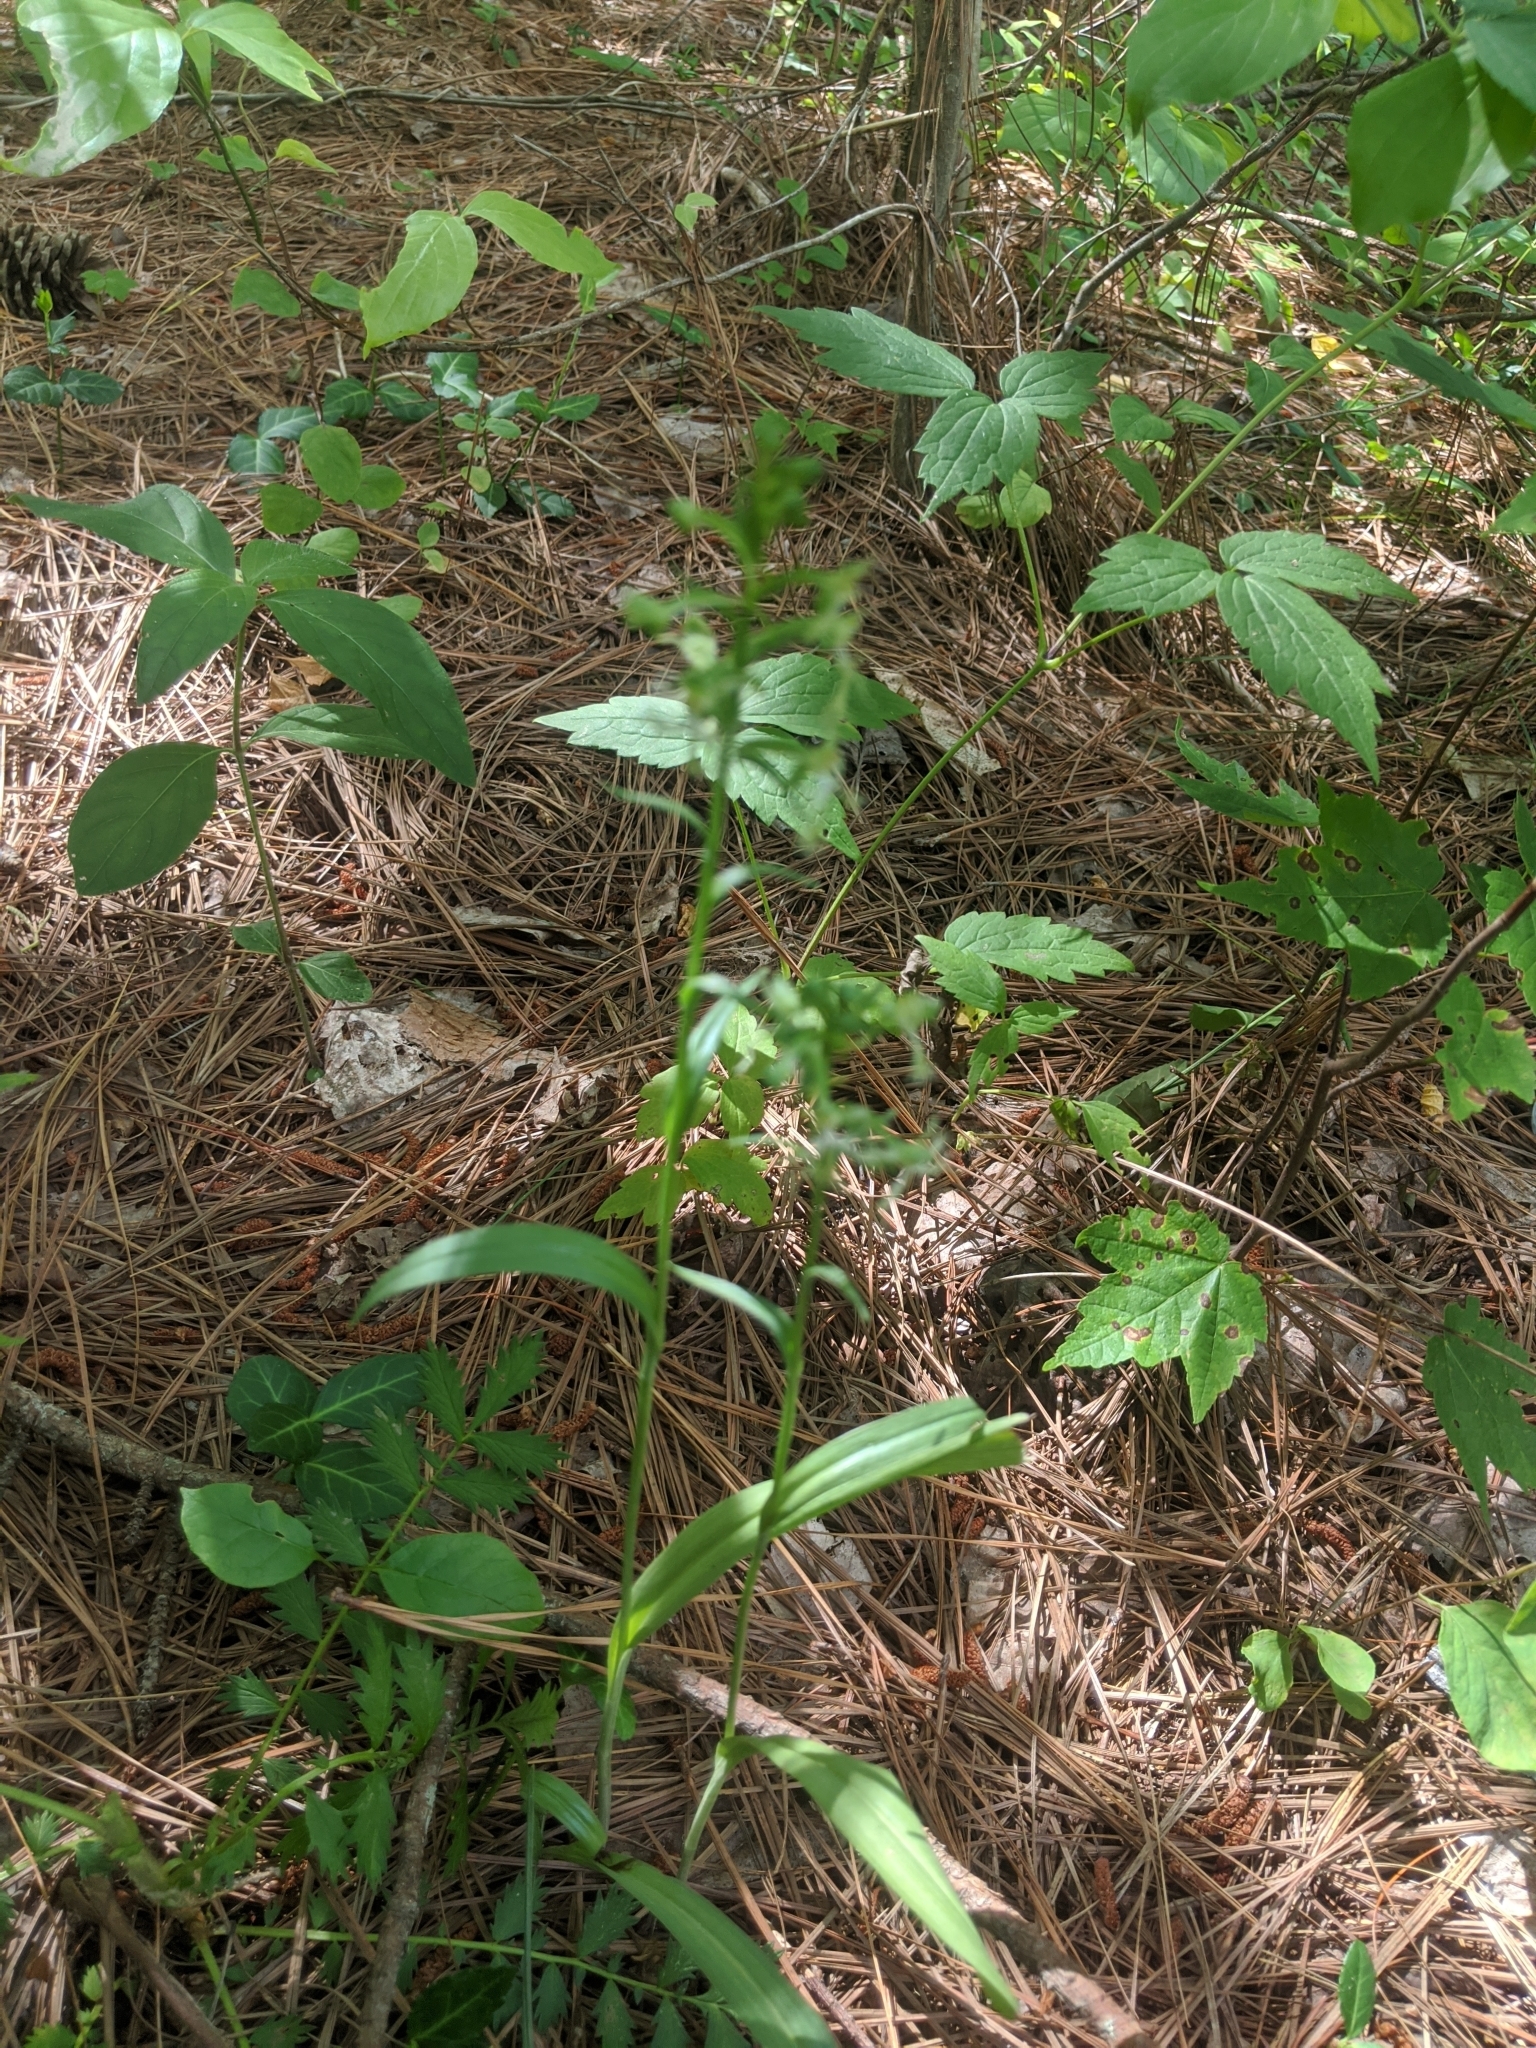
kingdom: Plantae
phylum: Tracheophyta
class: Liliopsida
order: Asparagales
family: Orchidaceae
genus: Platanthera
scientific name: Platanthera lacera
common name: Green fringed orchid
